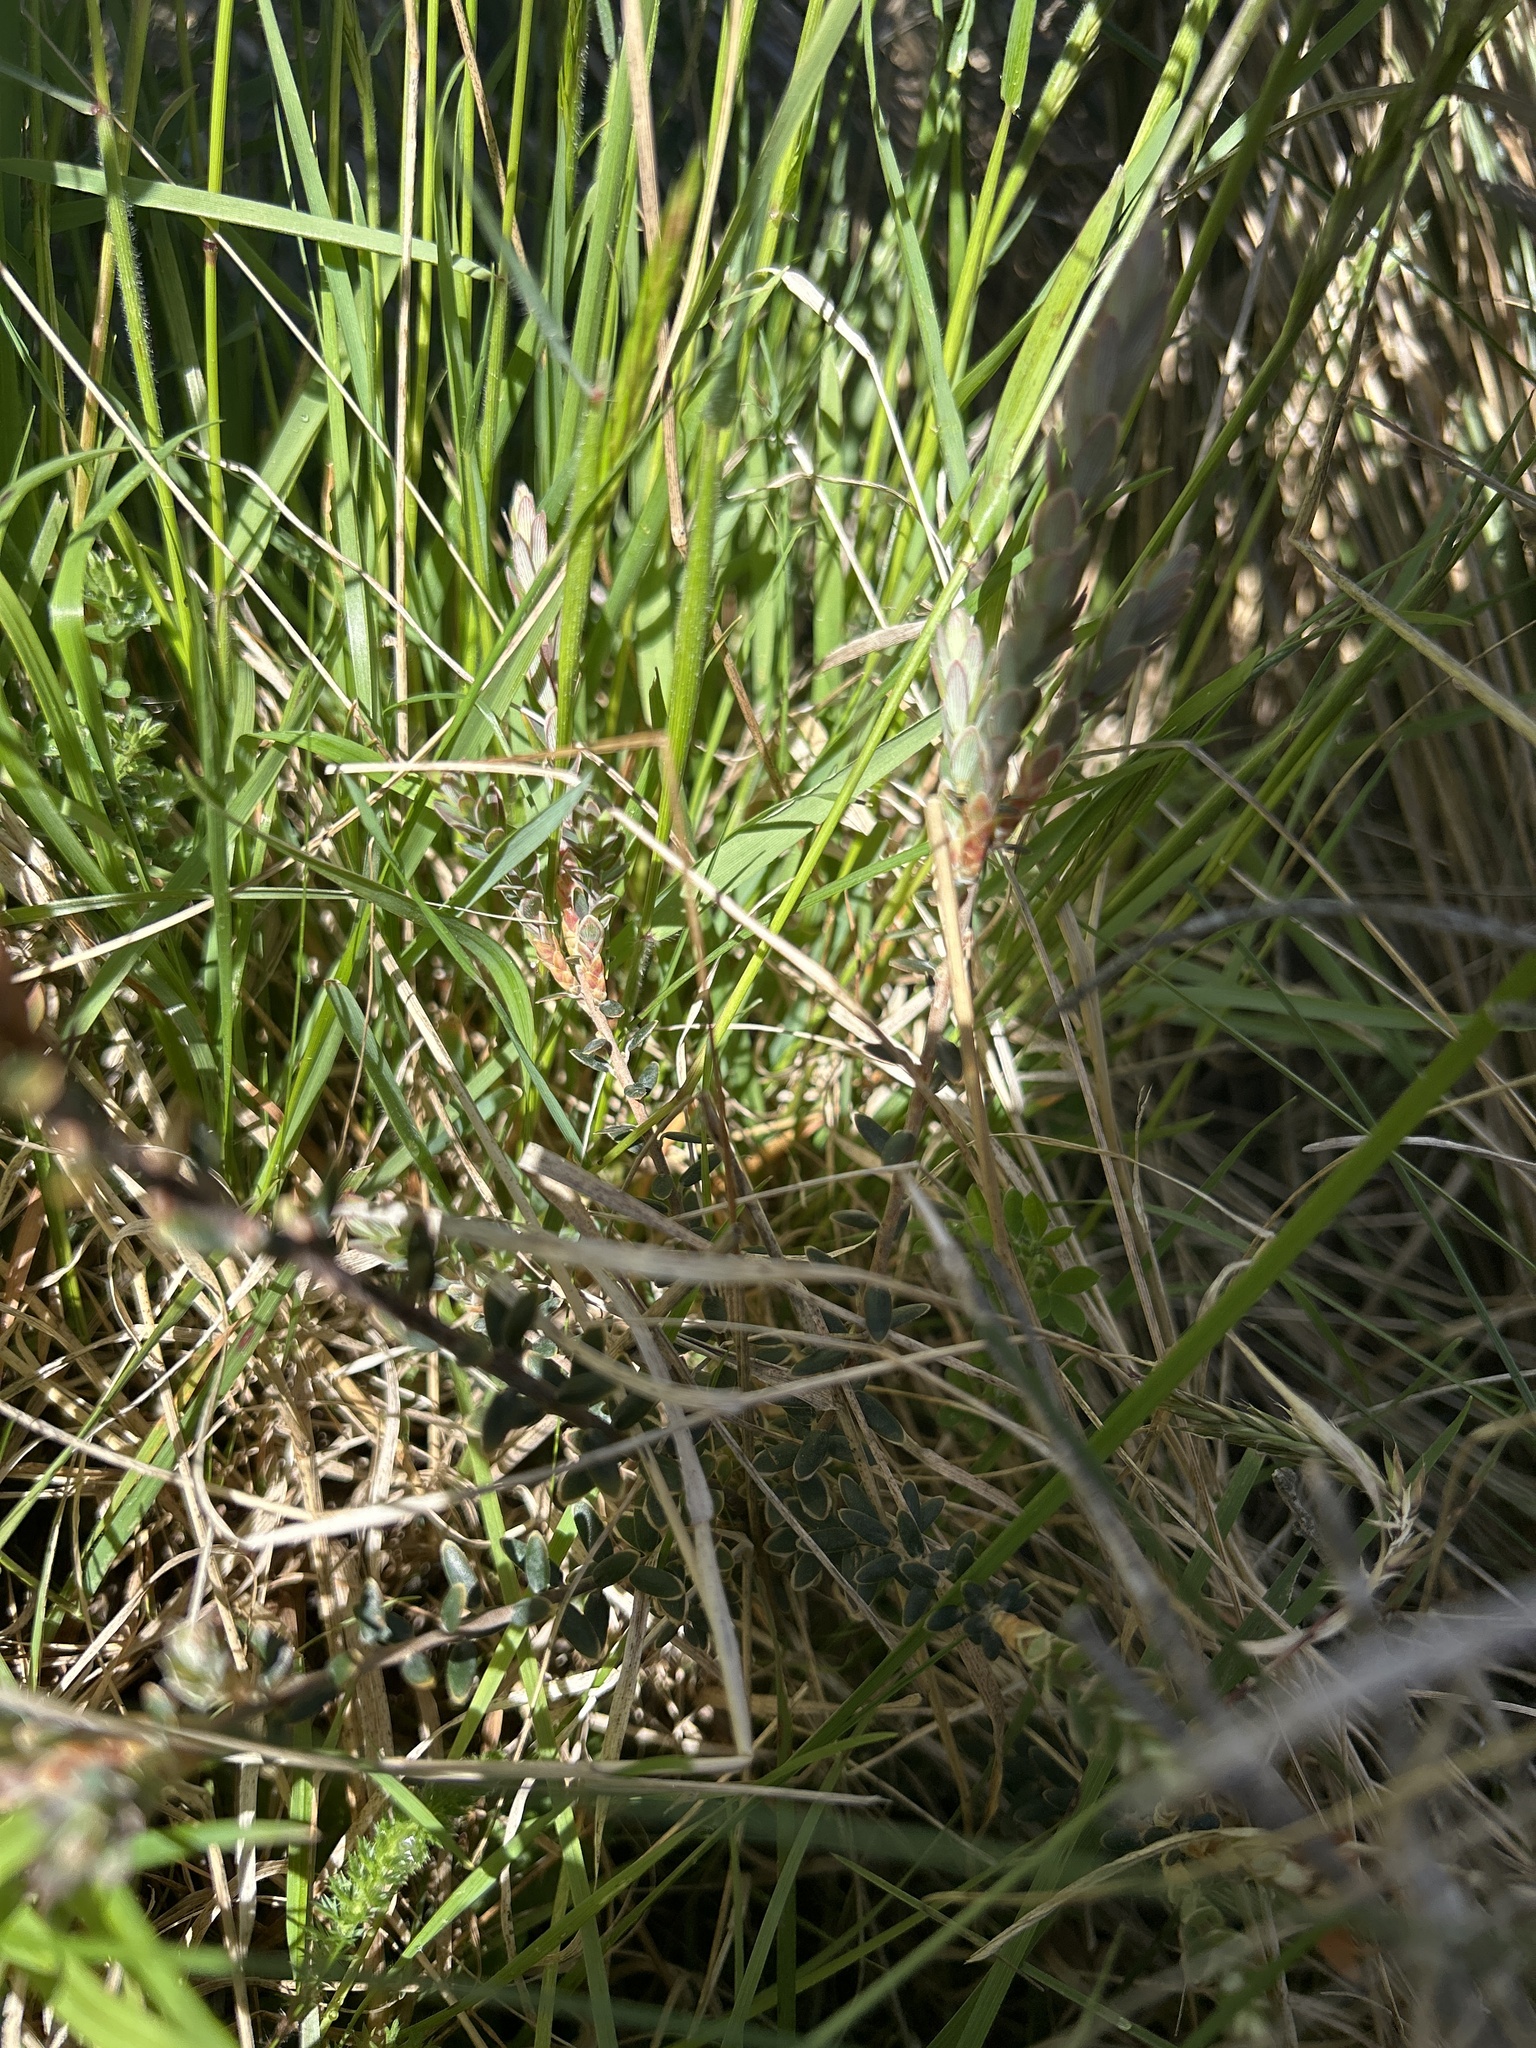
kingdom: Plantae
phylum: Tracheophyta
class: Magnoliopsida
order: Ericales
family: Ericaceae
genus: Acrothamnus
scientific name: Acrothamnus colensoi
